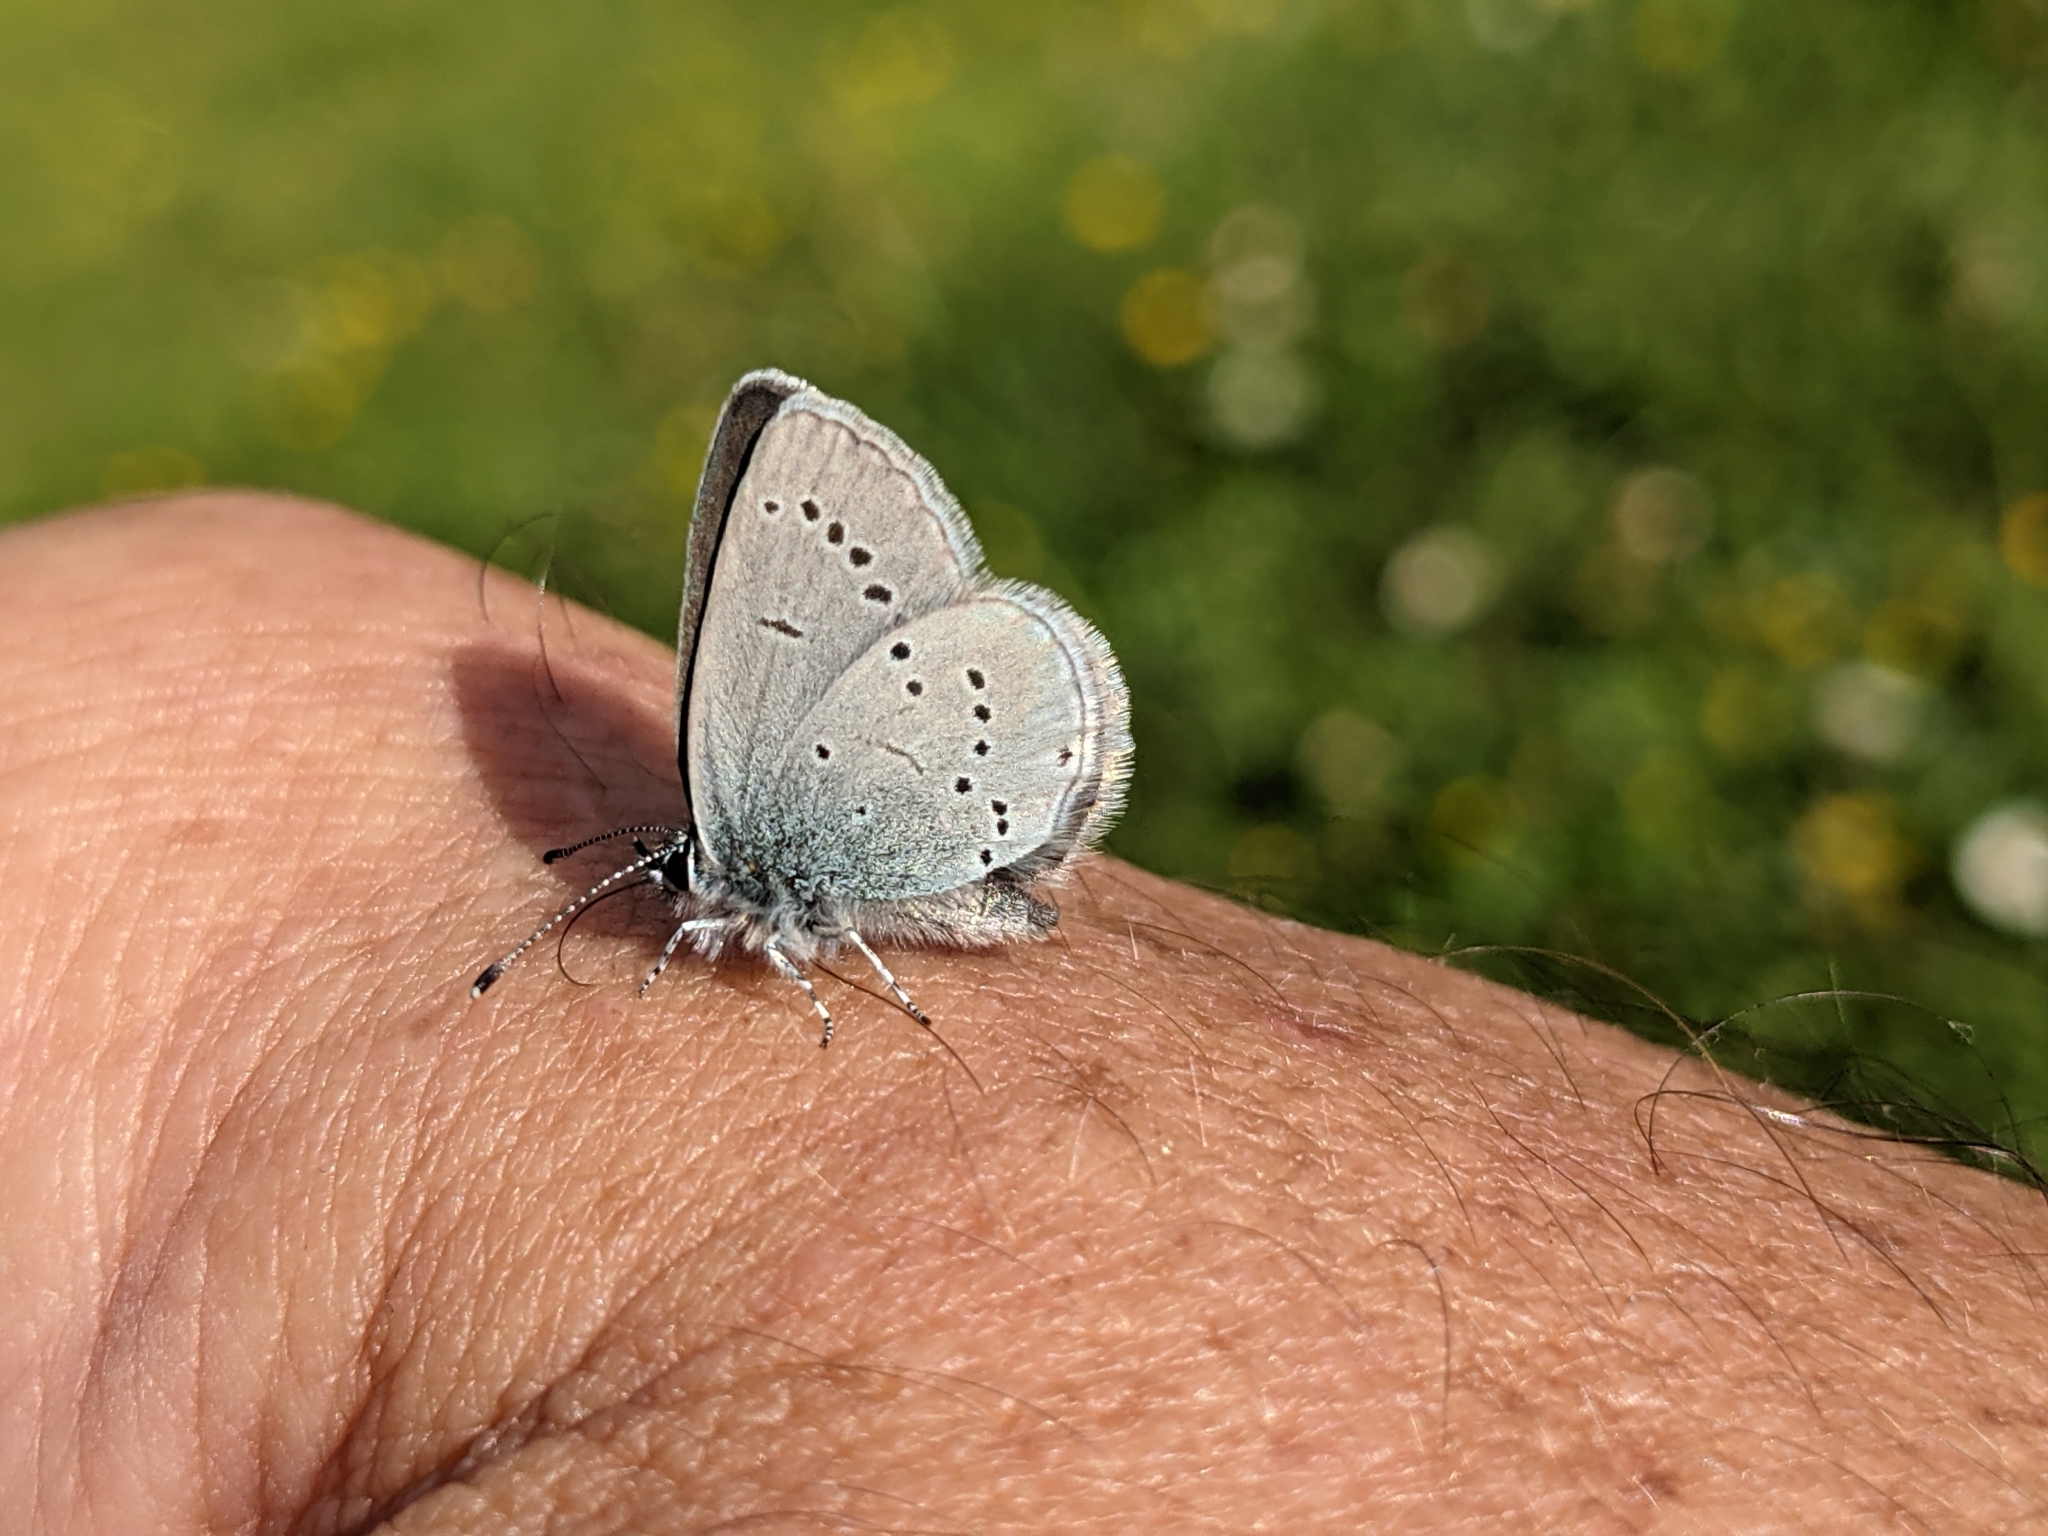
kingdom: Animalia
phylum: Arthropoda
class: Insecta
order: Lepidoptera
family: Lycaenidae
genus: Cupido
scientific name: Cupido minimus
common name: Small blue
